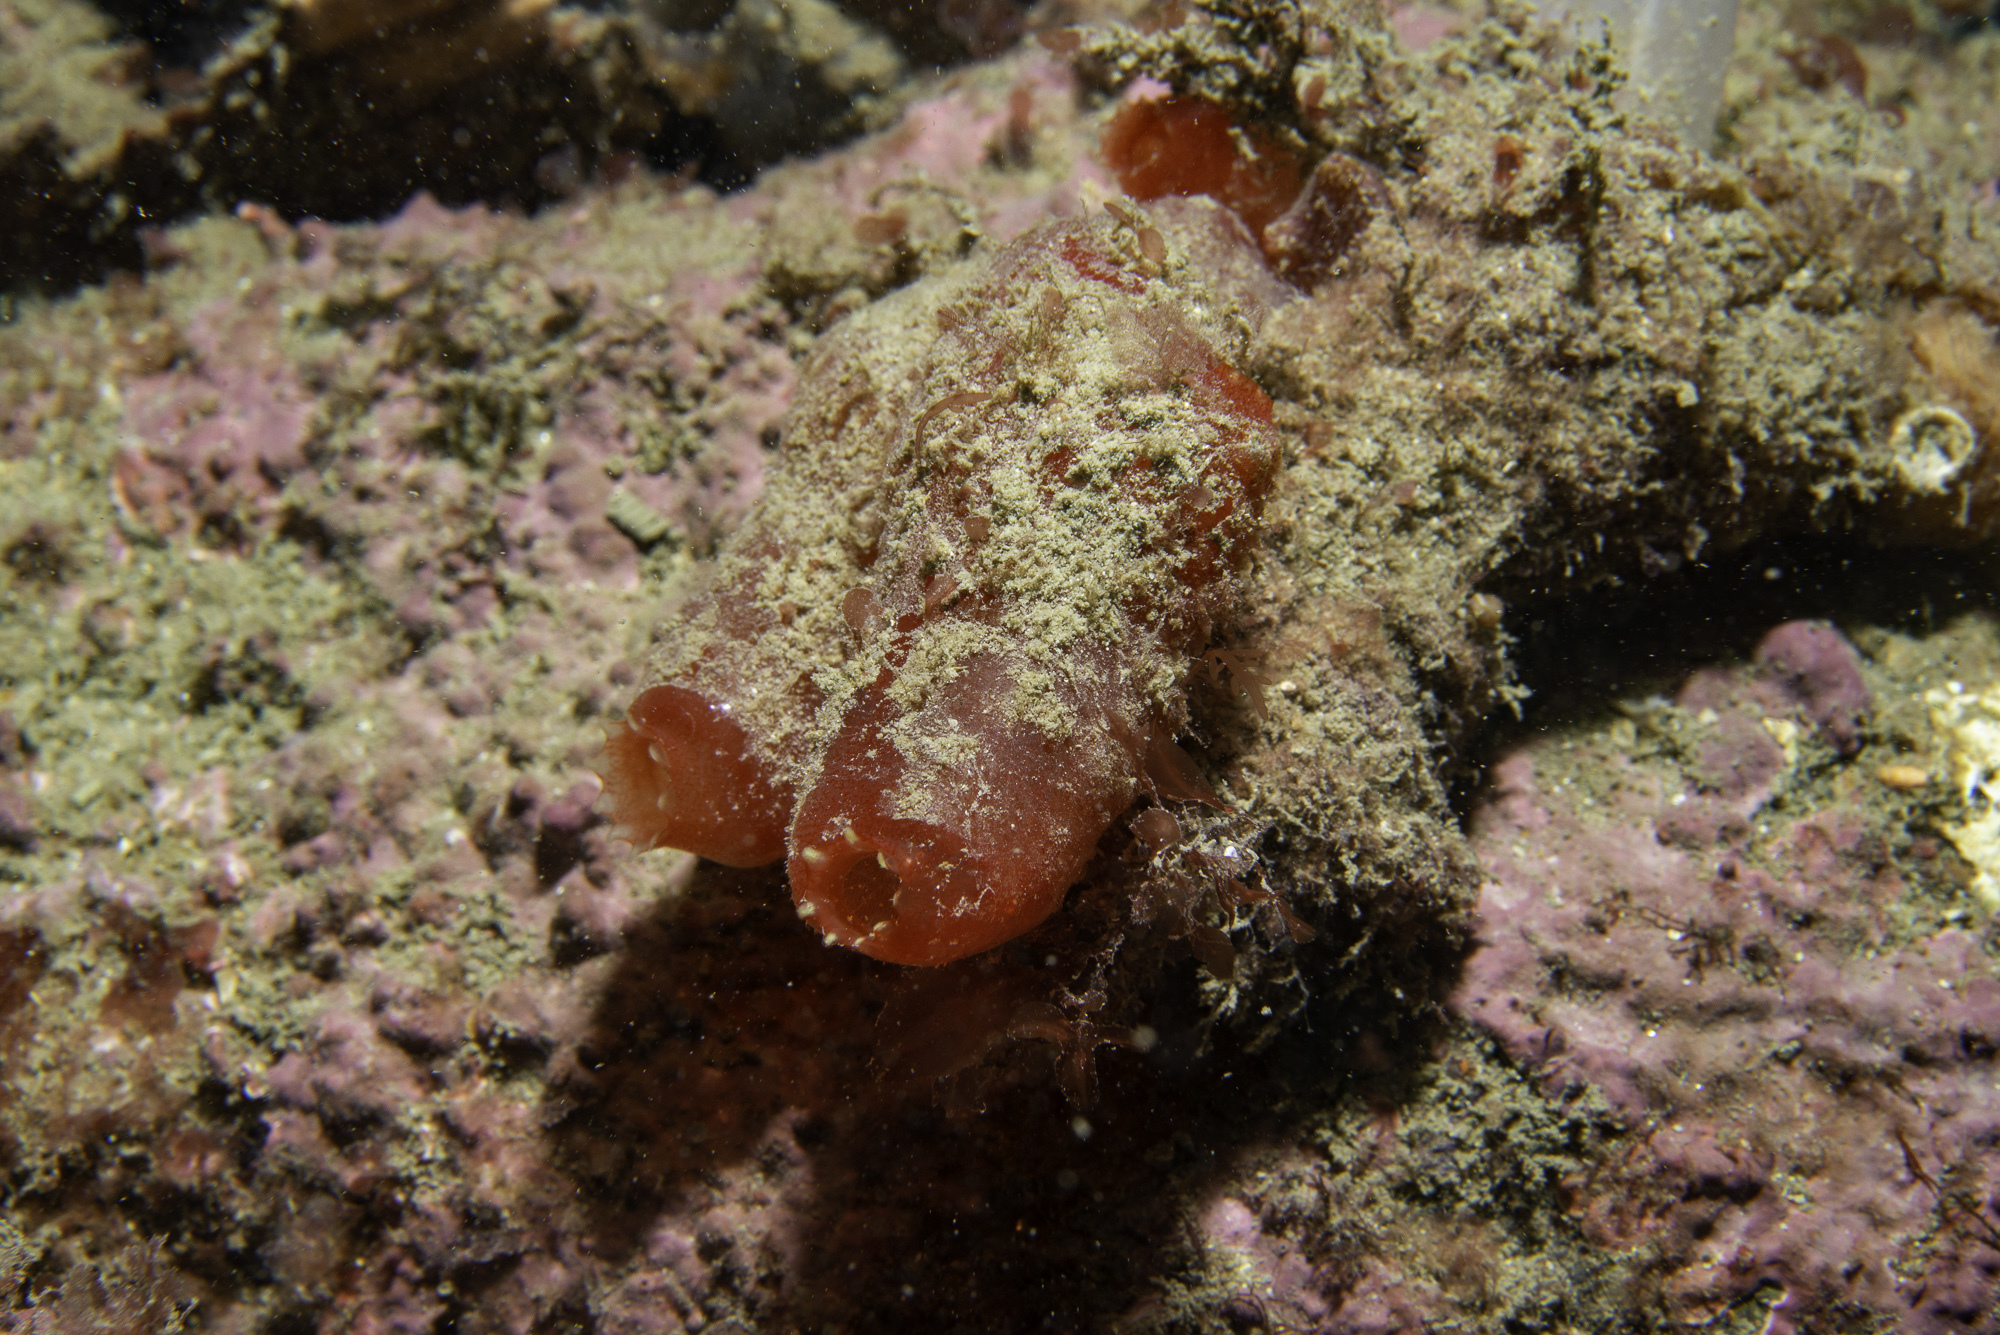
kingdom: Animalia
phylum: Chordata
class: Ascidiacea
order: Phlebobranchia
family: Ascidiidae
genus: Ascidia
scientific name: Ascidia mentula
